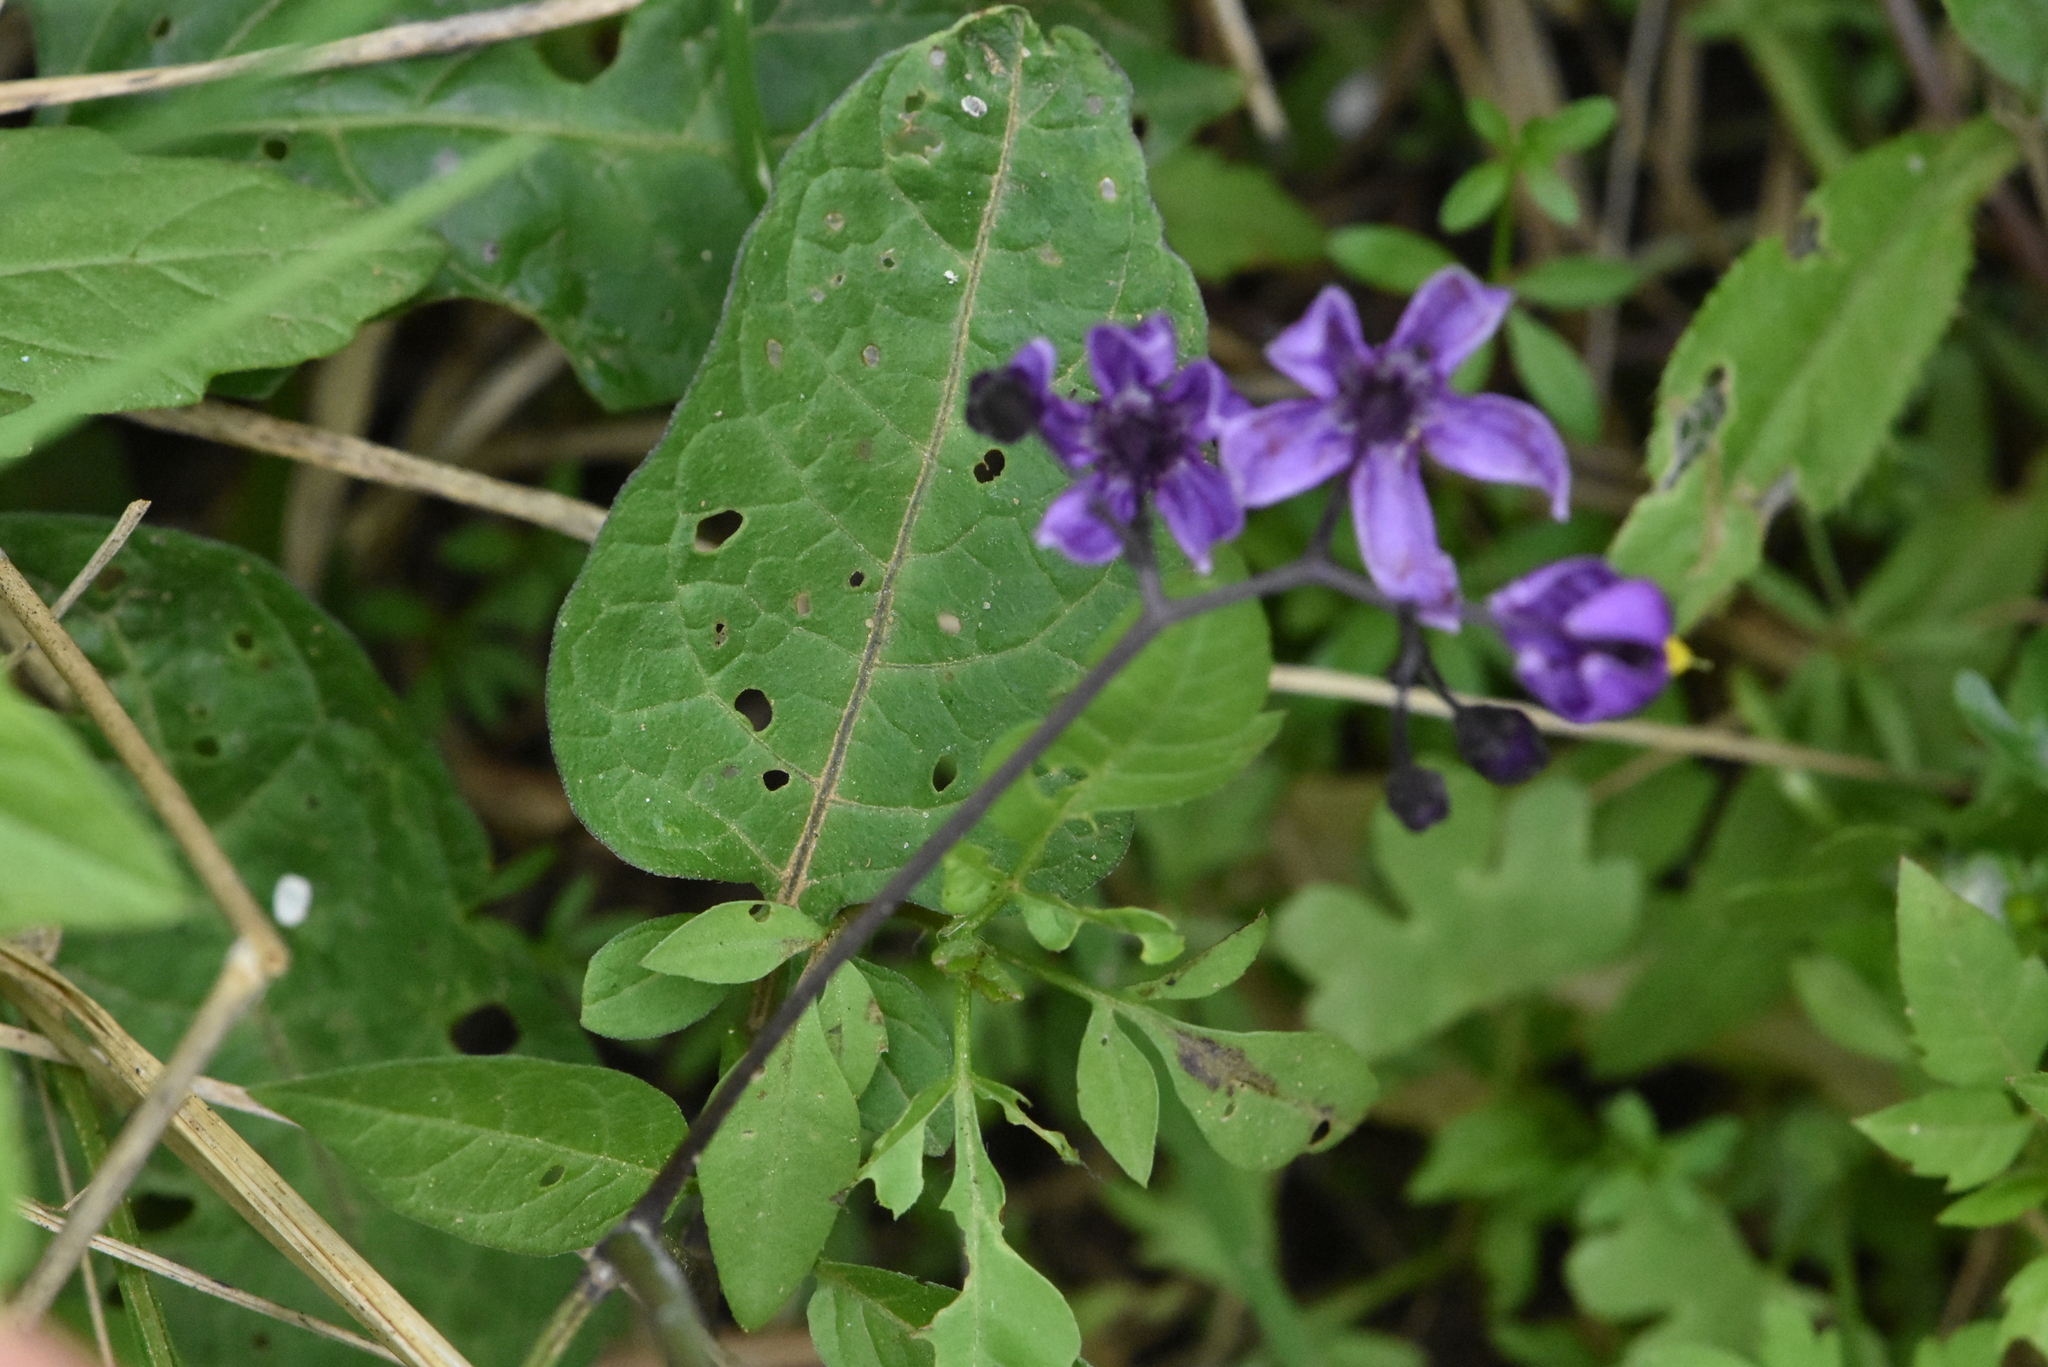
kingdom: Plantae
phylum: Tracheophyta
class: Magnoliopsida
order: Solanales
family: Solanaceae
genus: Solanum
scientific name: Solanum dulcamara
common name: Climbing nightshade
